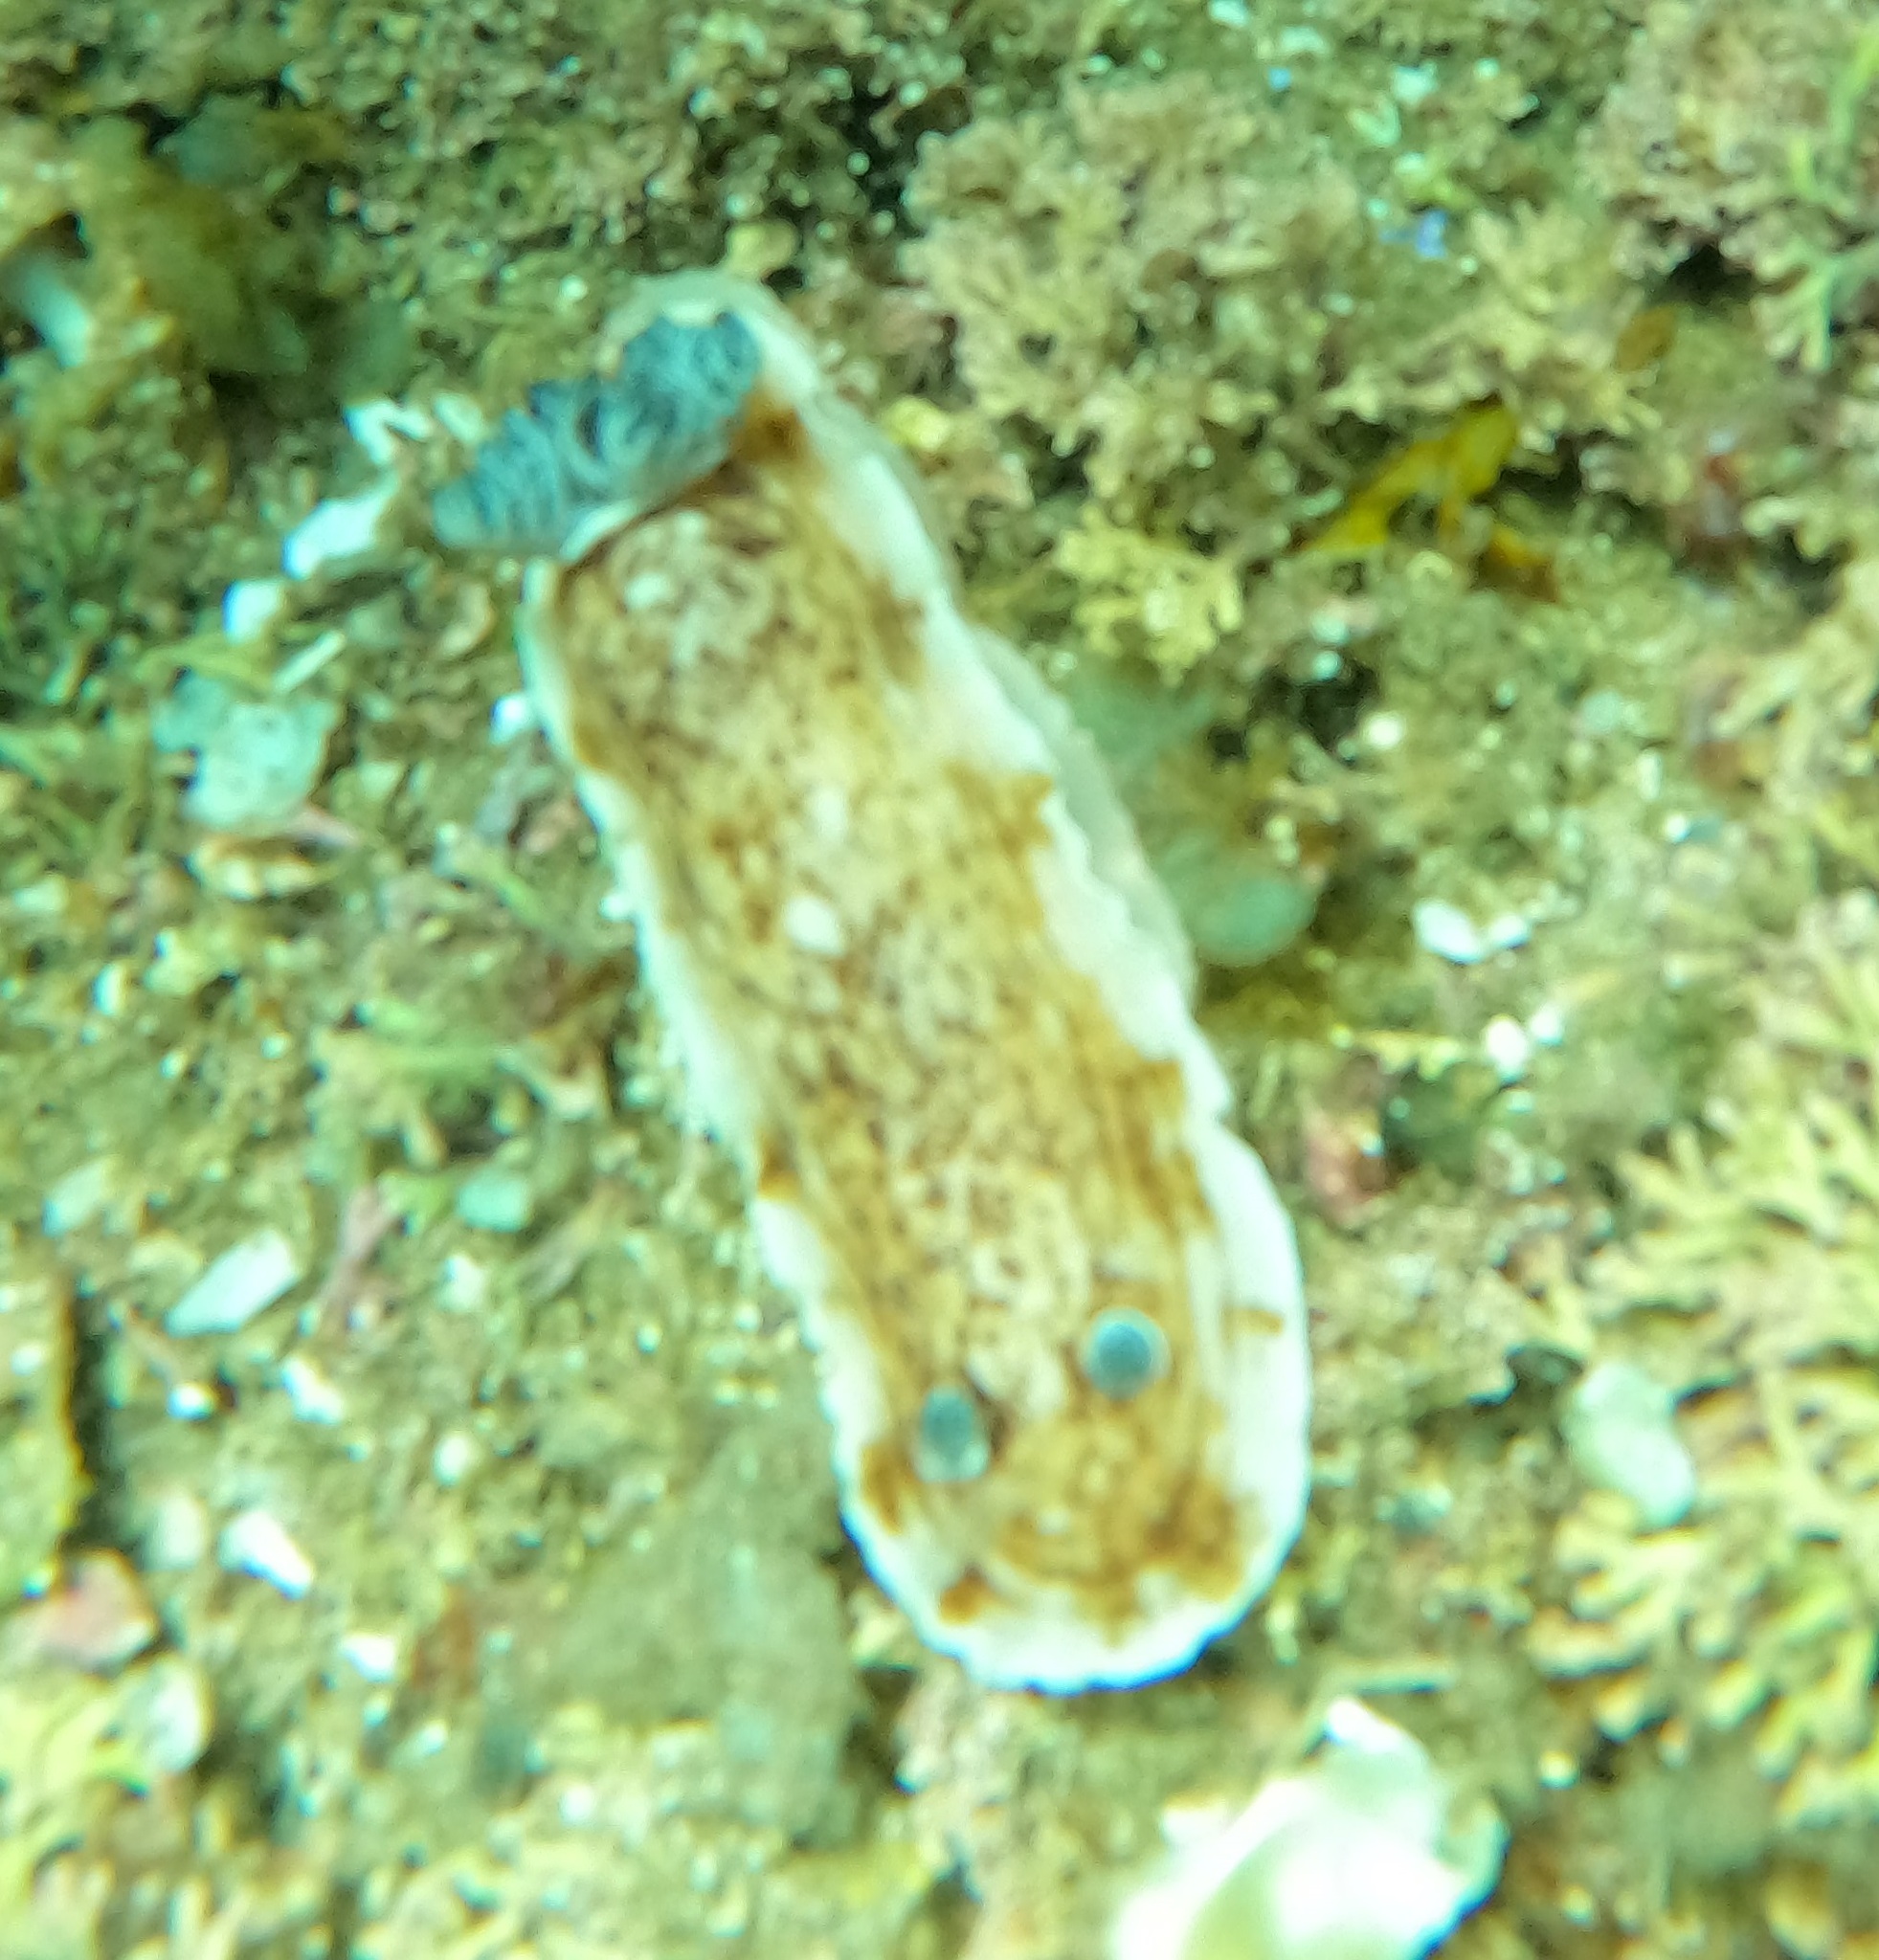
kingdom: Animalia
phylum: Mollusca
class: Gastropoda
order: Nudibranchia
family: Dorididae
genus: Aphelodoris
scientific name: Aphelodoris varia
